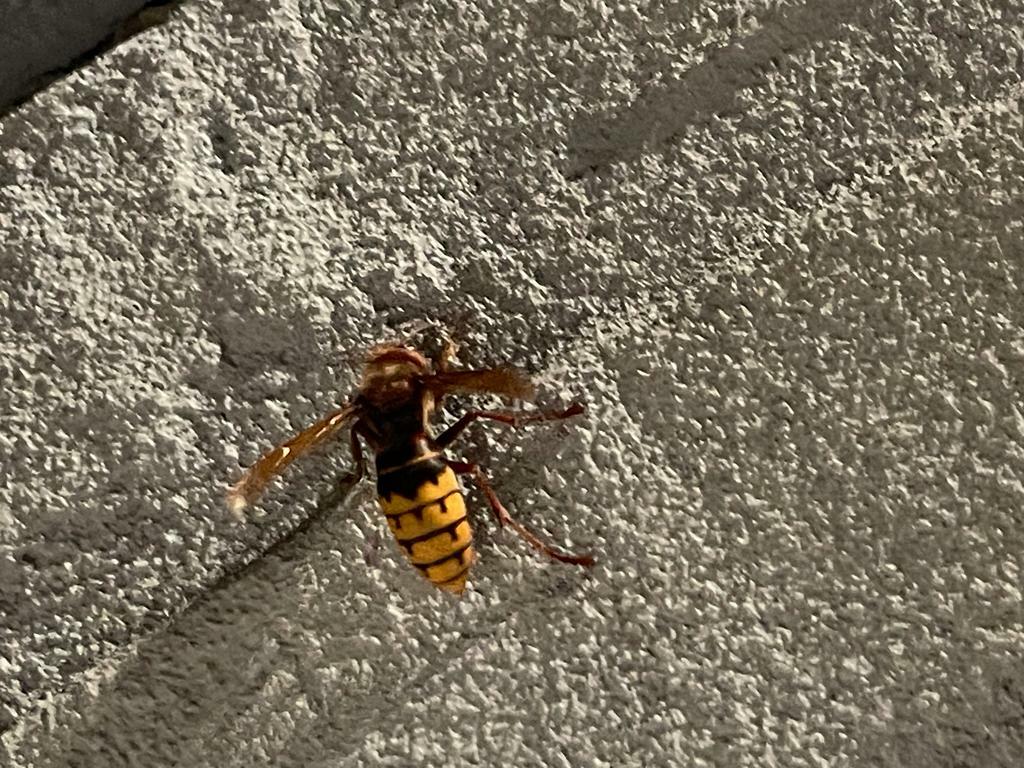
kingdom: Animalia
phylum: Arthropoda
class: Insecta
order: Hymenoptera
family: Vespidae
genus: Vespa
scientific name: Vespa crabro
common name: Hornet
